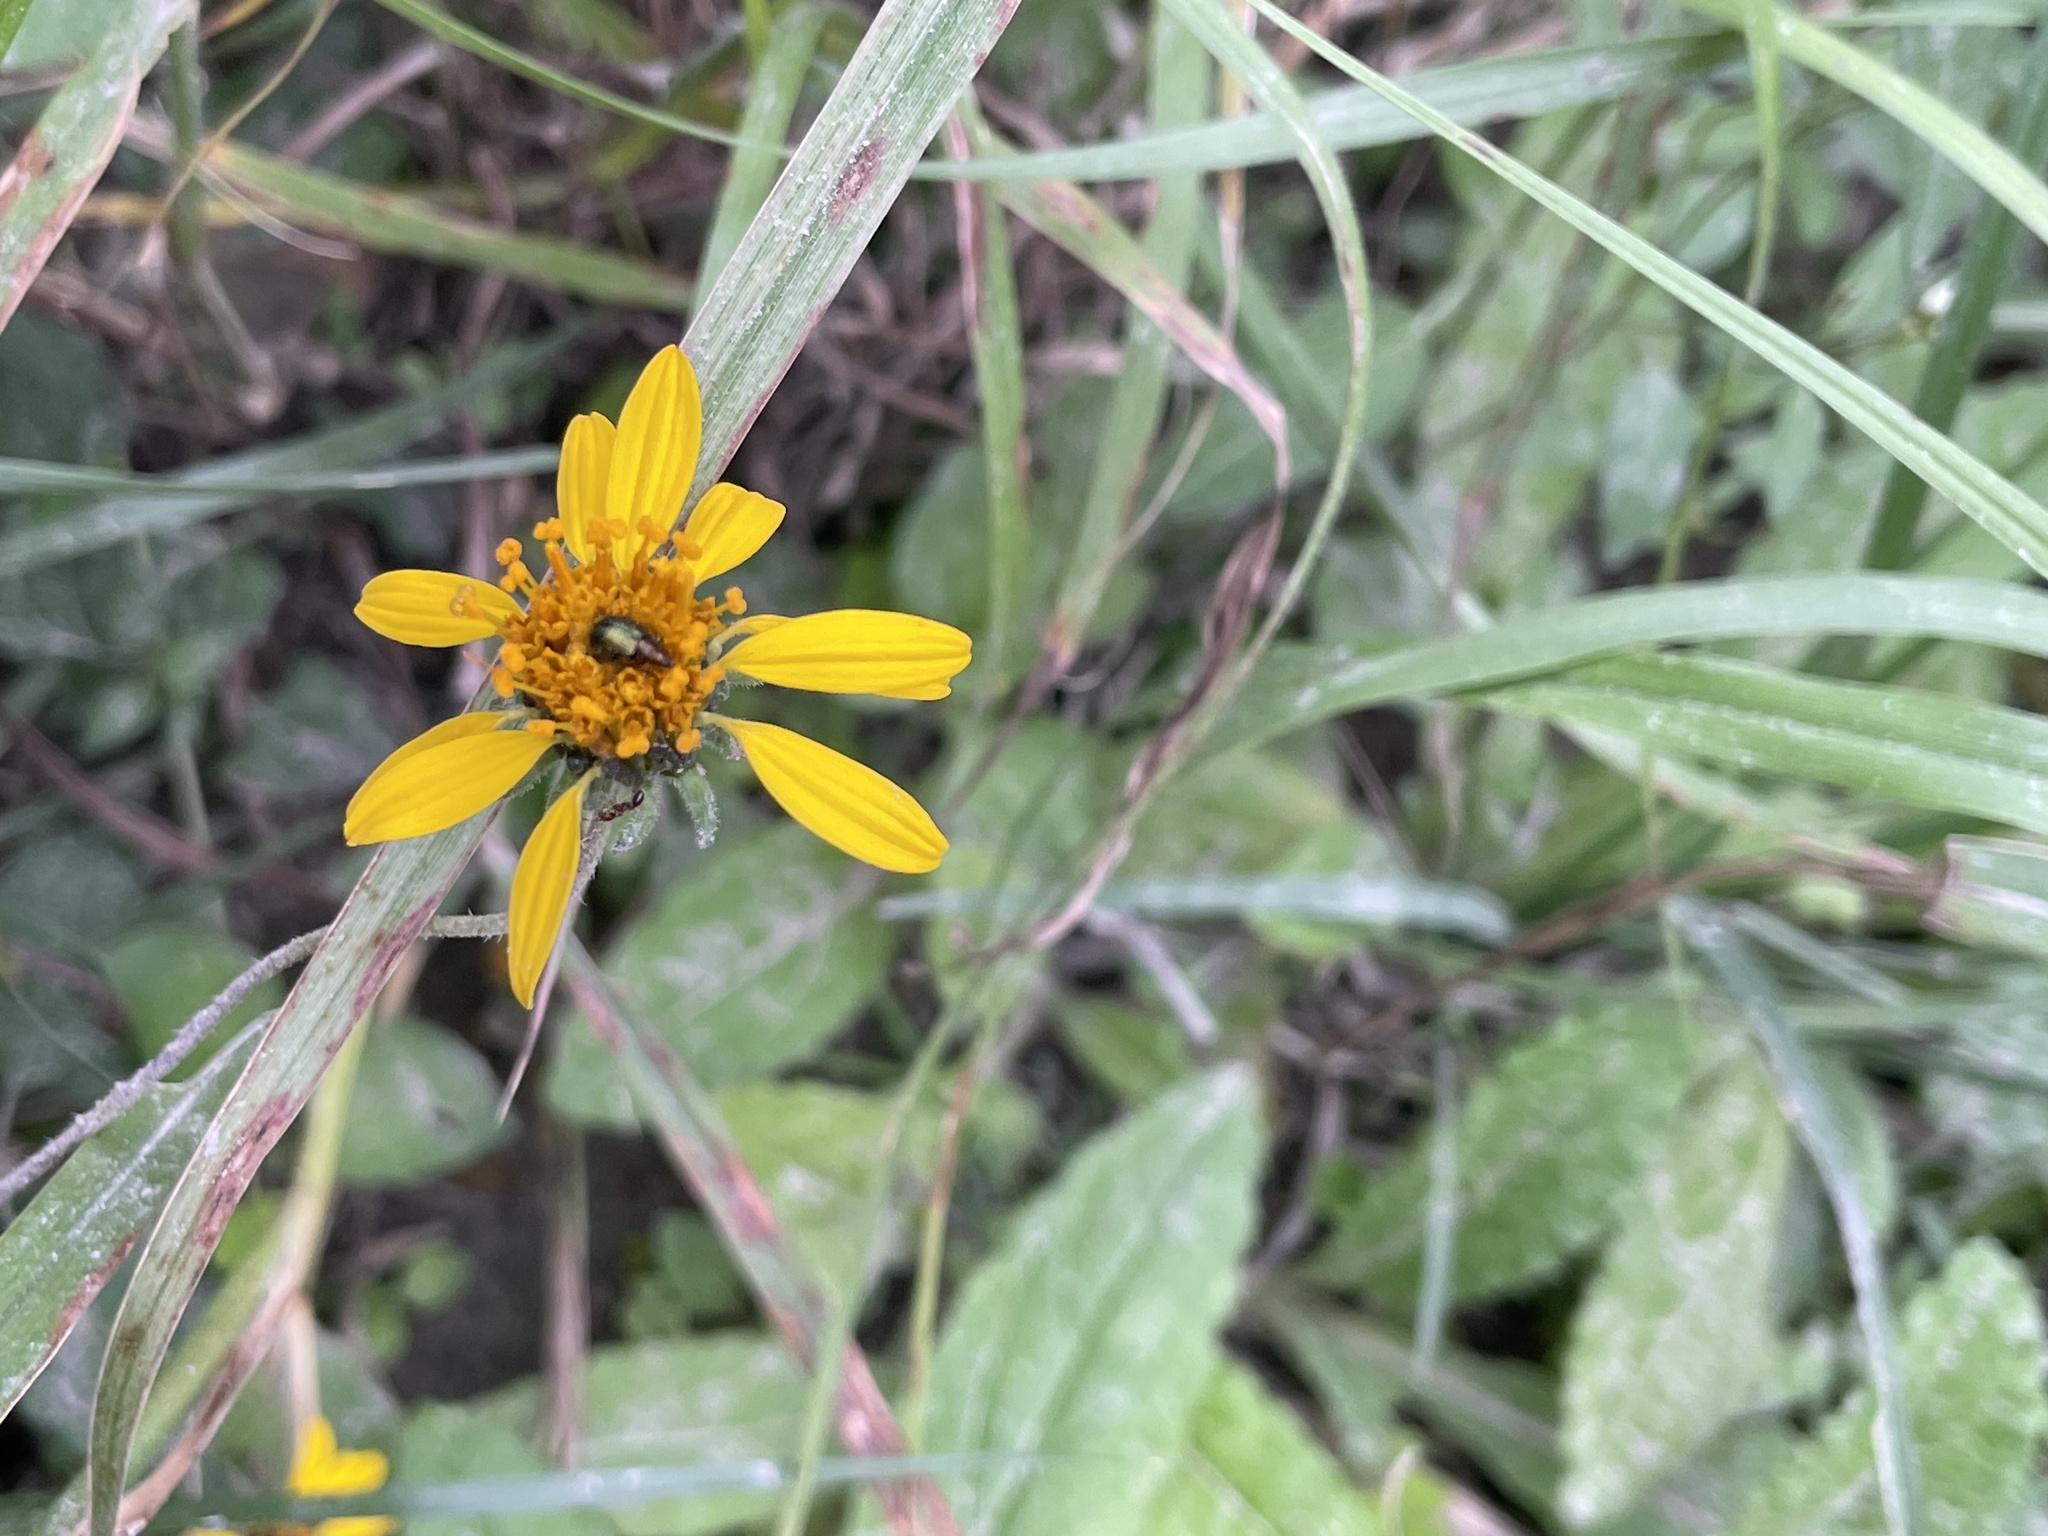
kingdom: Plantae
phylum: Tracheophyta
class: Magnoliopsida
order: Asterales
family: Asteraceae
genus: Simsia
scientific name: Simsia calva
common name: Awnless bush-sunflower
